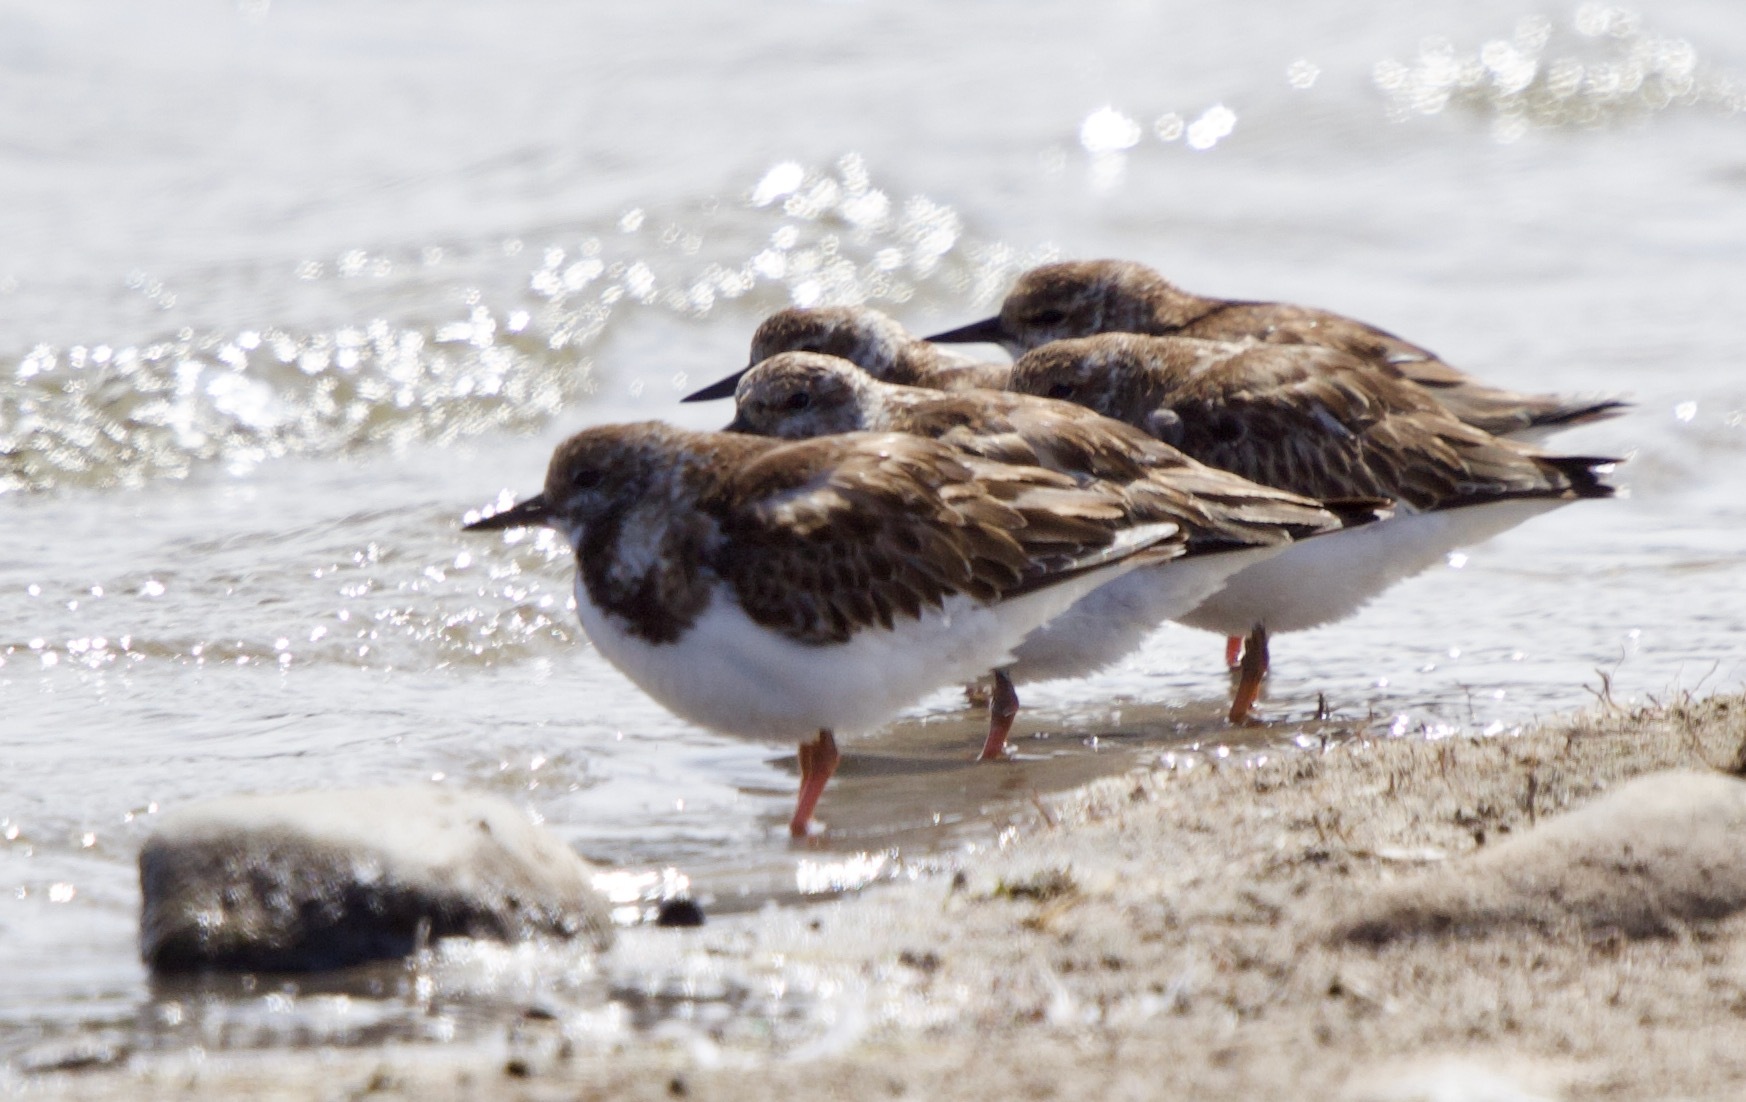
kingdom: Animalia
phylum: Chordata
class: Aves
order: Charadriiformes
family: Scolopacidae
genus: Arenaria
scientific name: Arenaria interpres
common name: Ruddy turnstone
